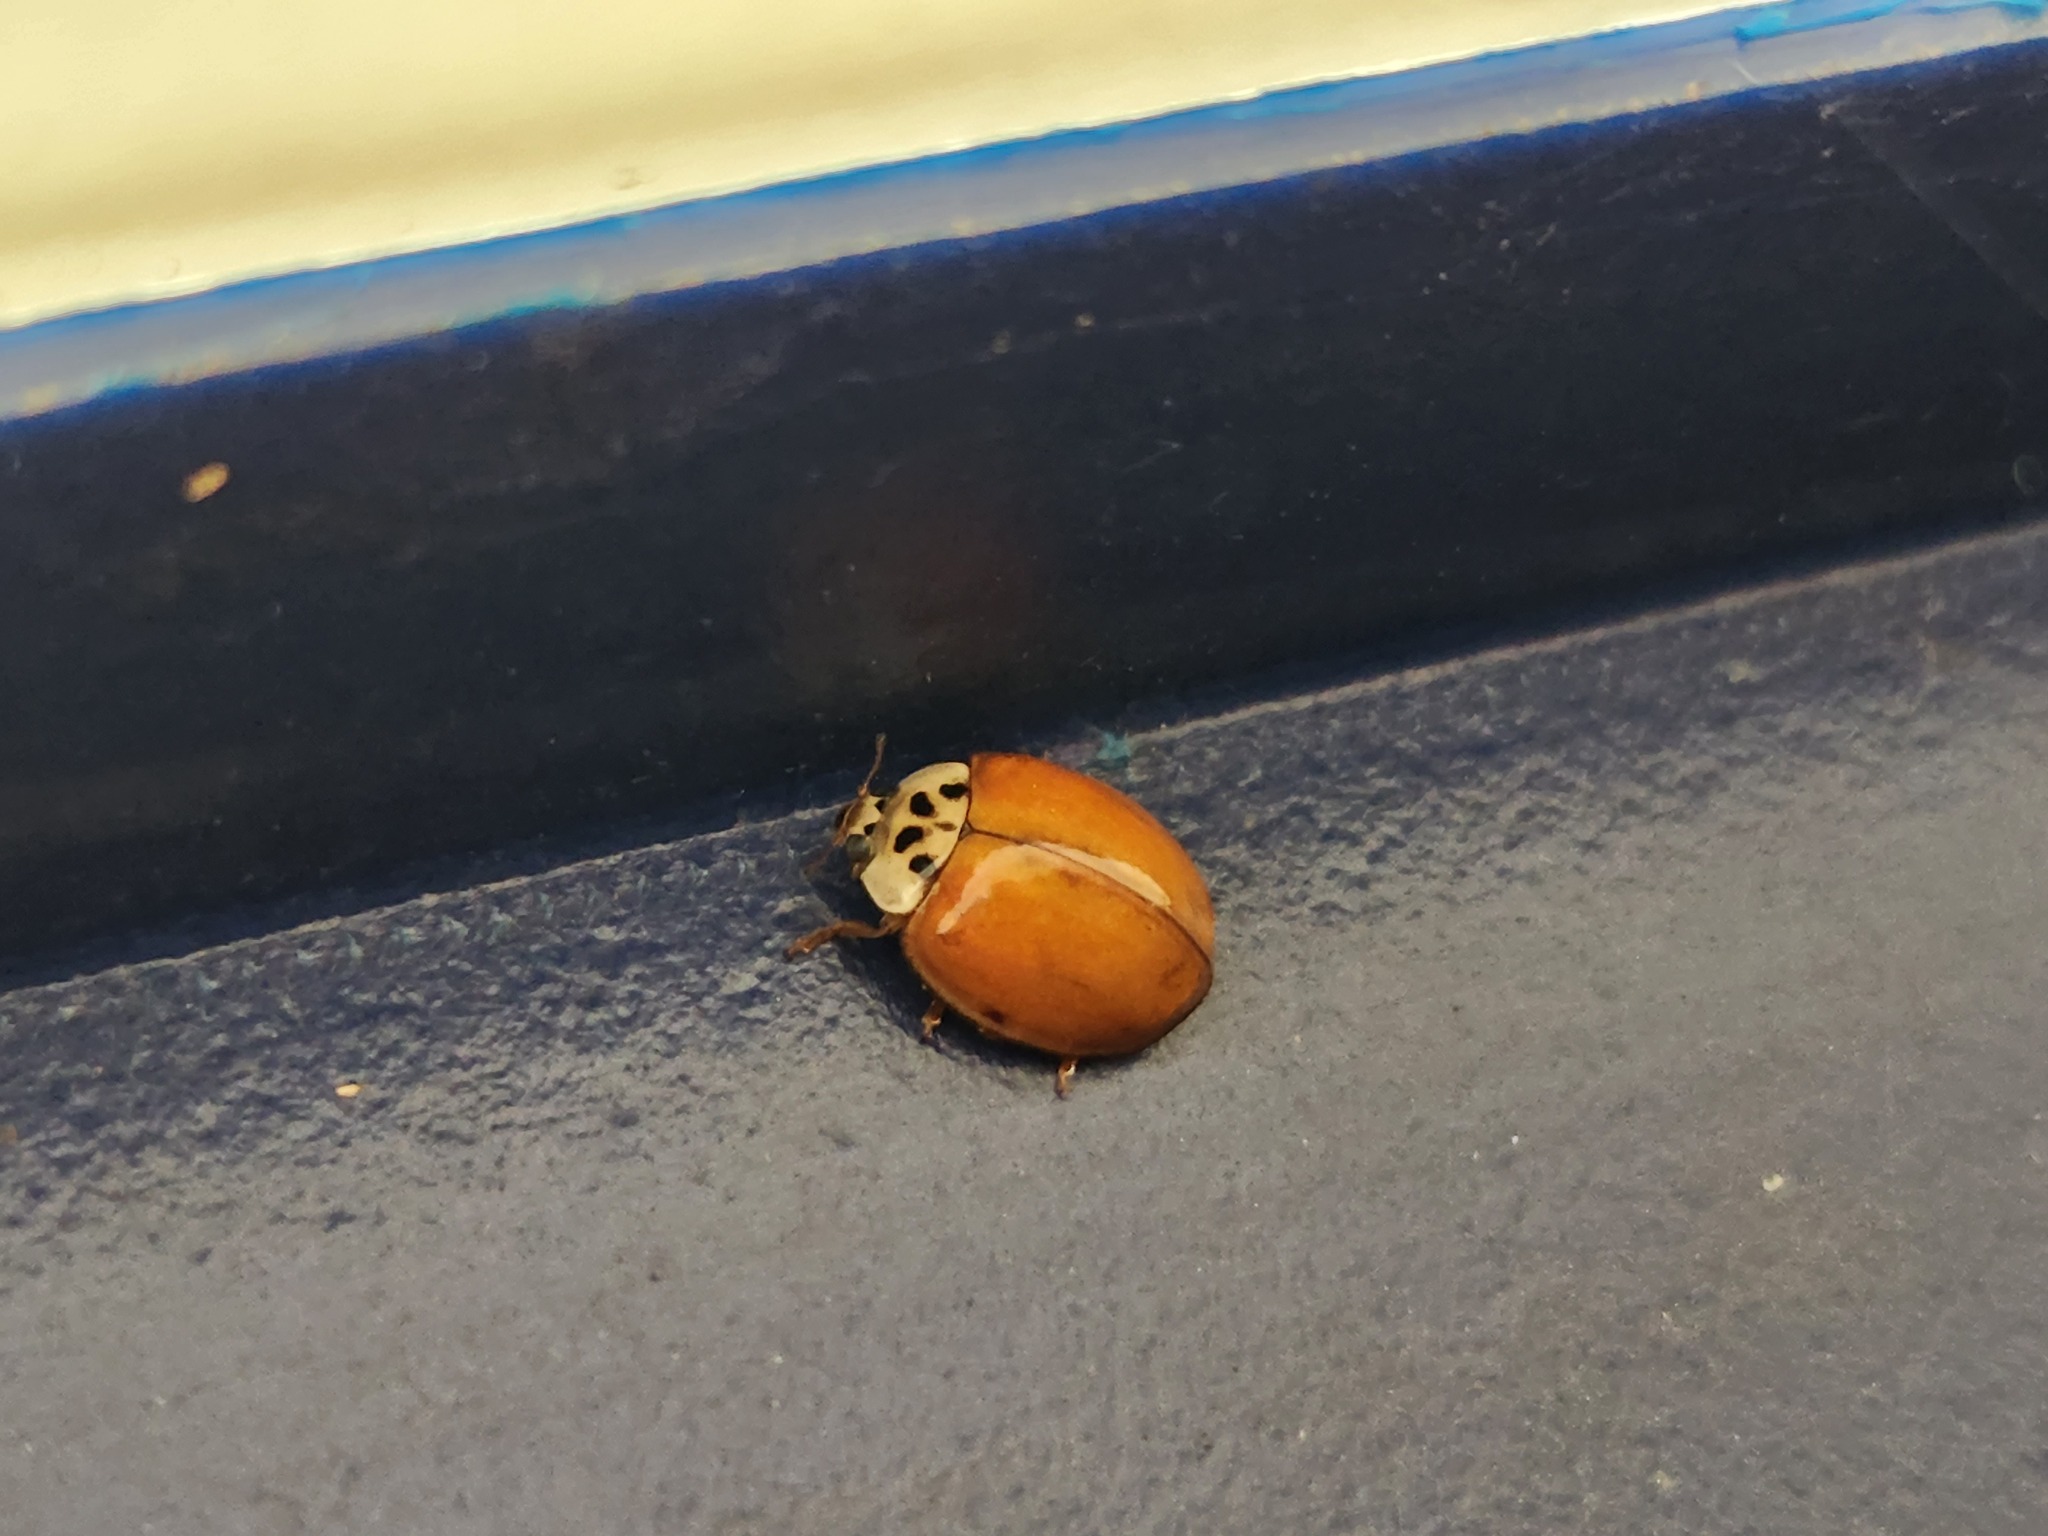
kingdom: Animalia
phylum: Arthropoda
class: Insecta
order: Coleoptera
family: Coccinellidae
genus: Harmonia
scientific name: Harmonia axyridis
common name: Harlequin ladybird
